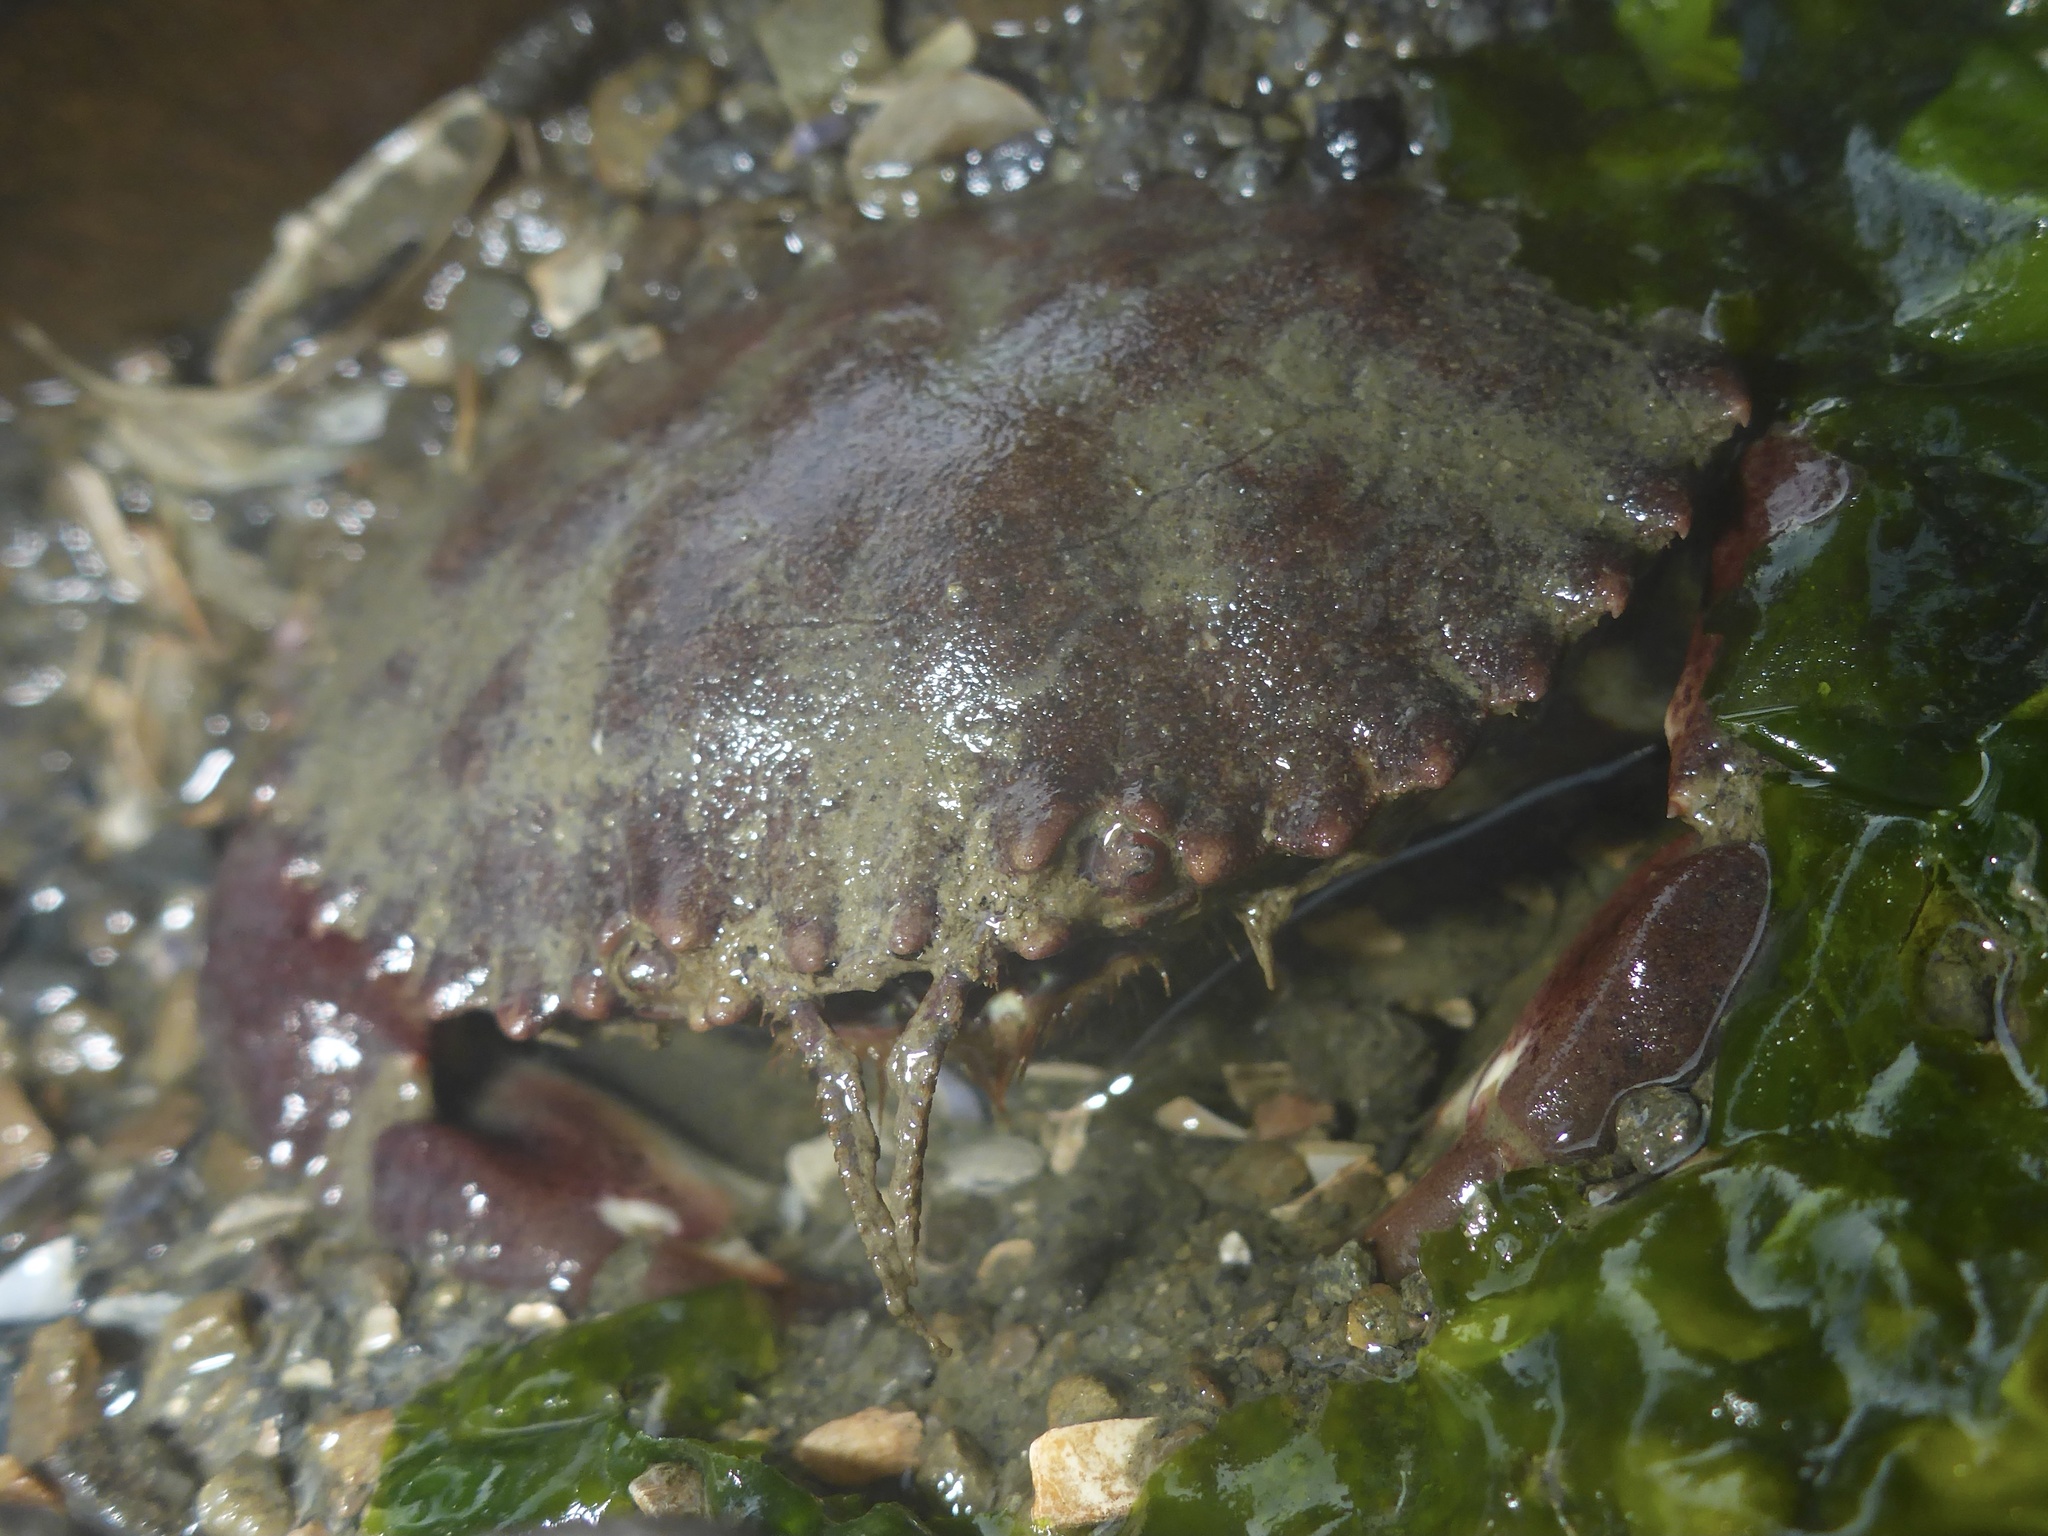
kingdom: Animalia
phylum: Arthropoda
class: Malacostraca
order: Decapoda
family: Cancridae
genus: Romaleon
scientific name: Romaleon antennarium
